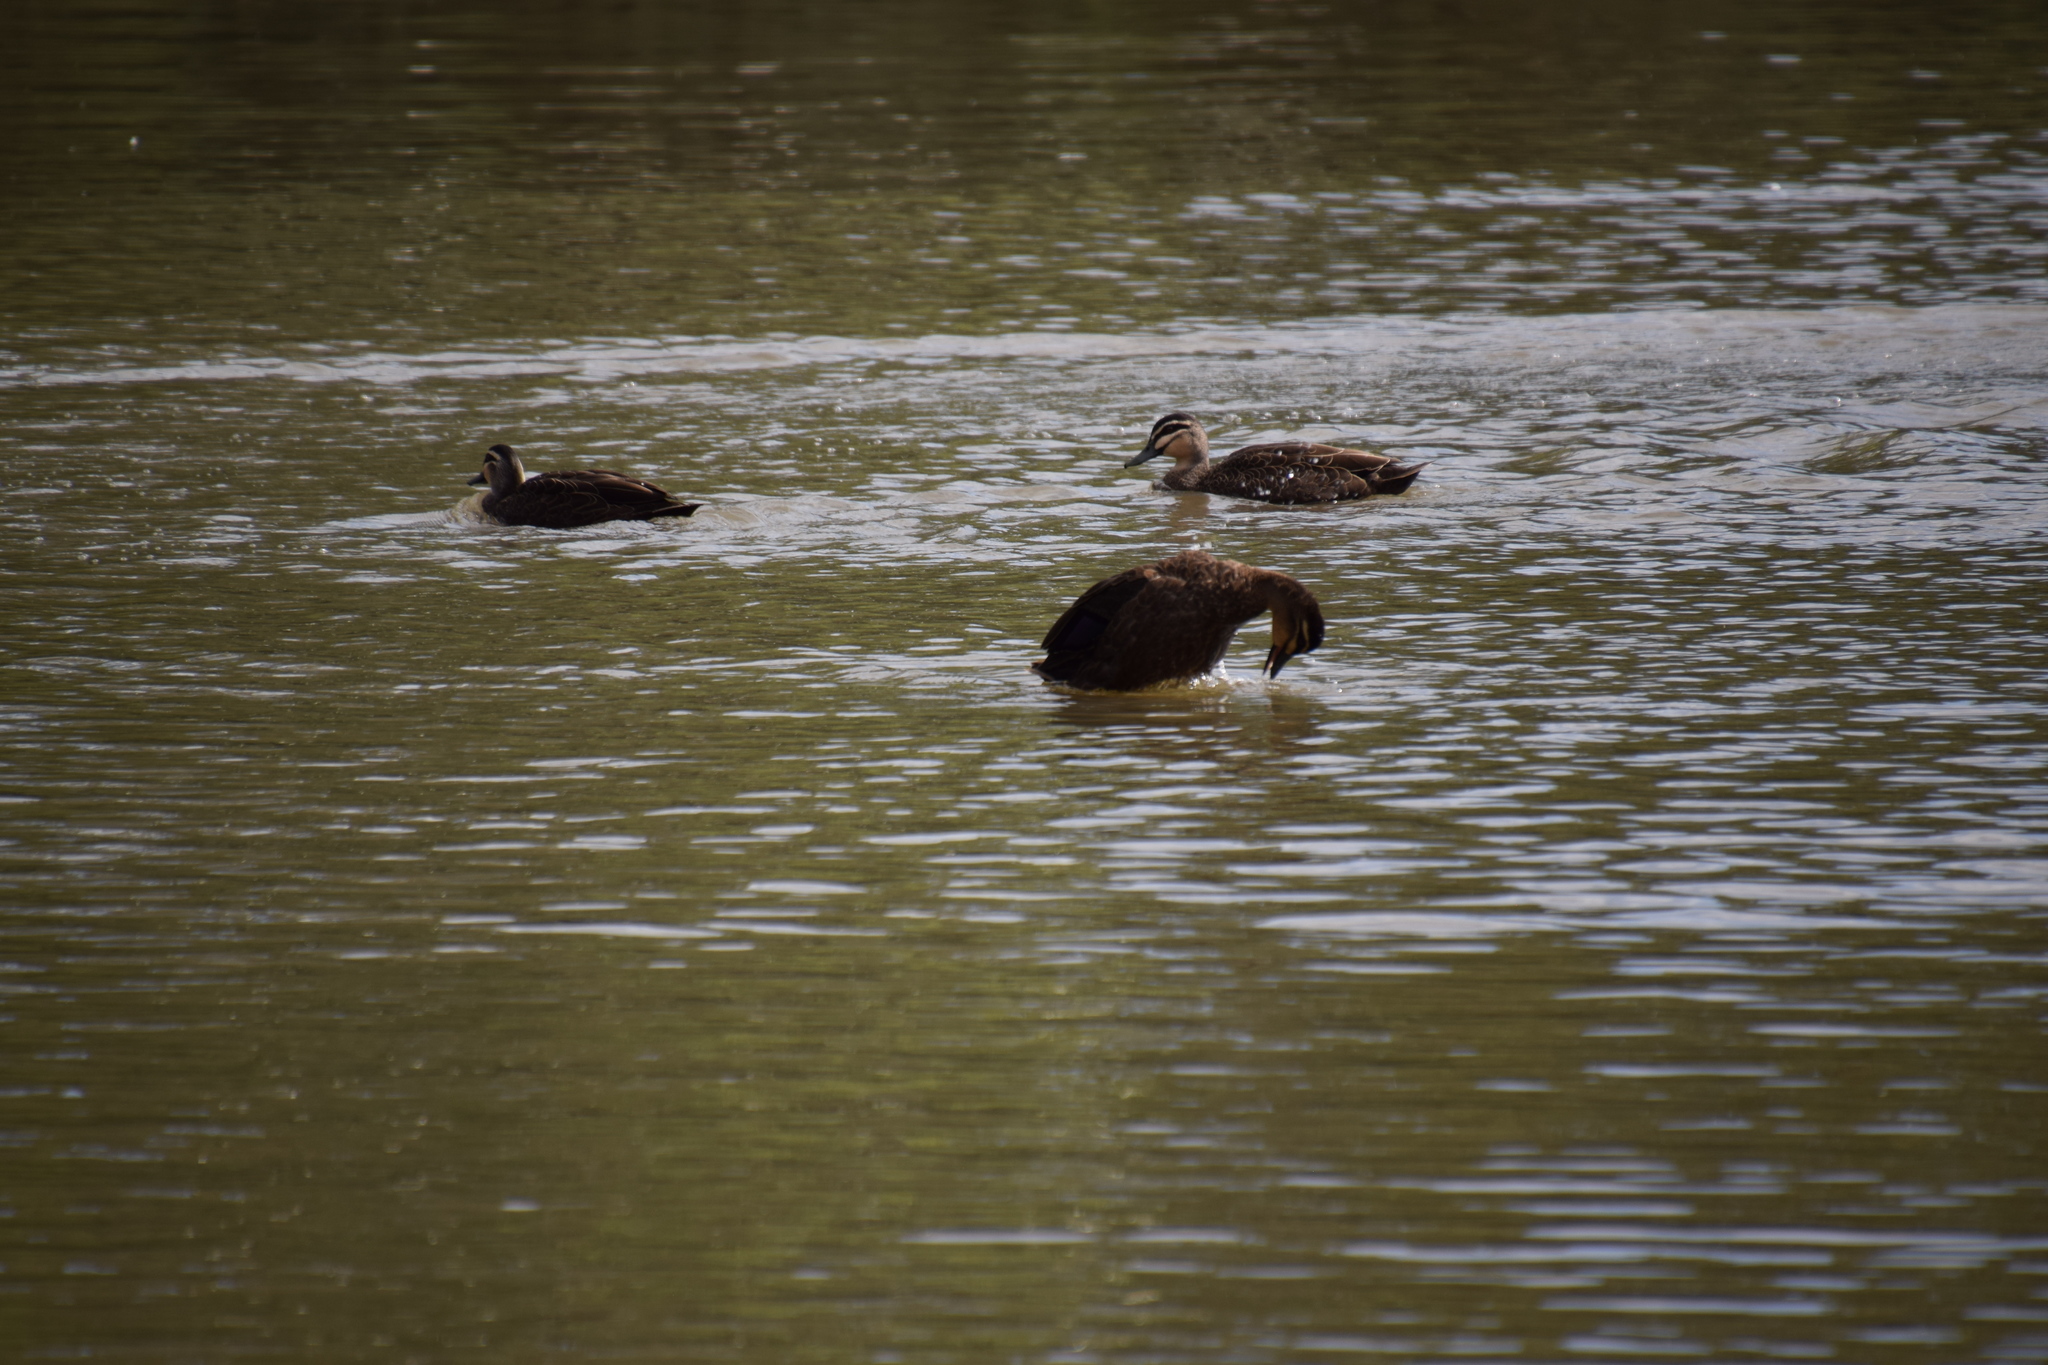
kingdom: Animalia
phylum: Chordata
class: Aves
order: Anseriformes
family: Anatidae
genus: Anas
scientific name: Anas superciliosa
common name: Pacific black duck
